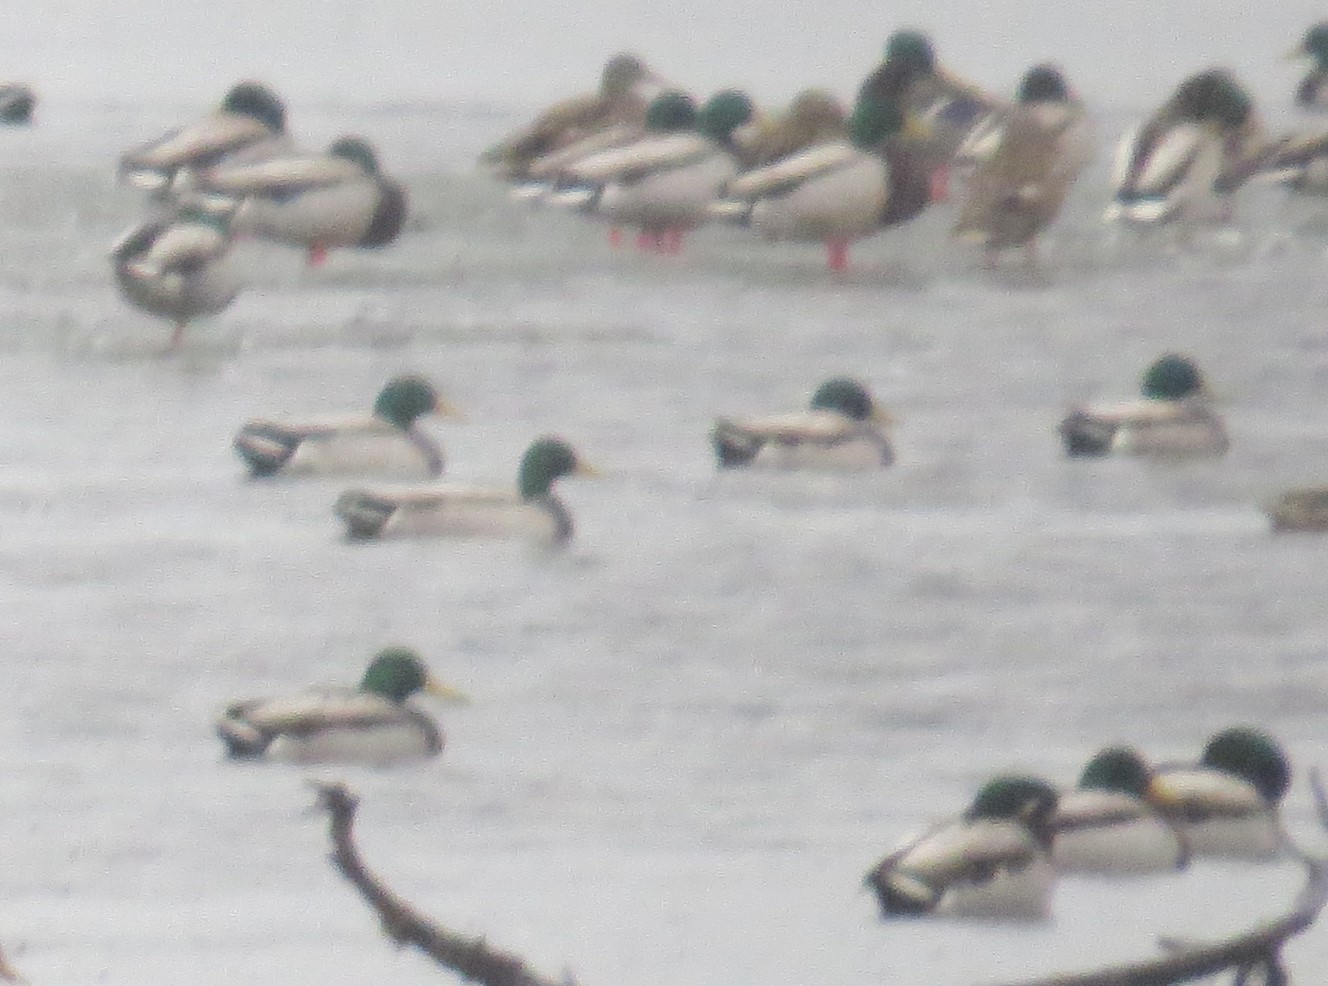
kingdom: Animalia
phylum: Chordata
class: Aves
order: Anseriformes
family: Anatidae
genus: Anas
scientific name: Anas platyrhynchos
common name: Mallard
